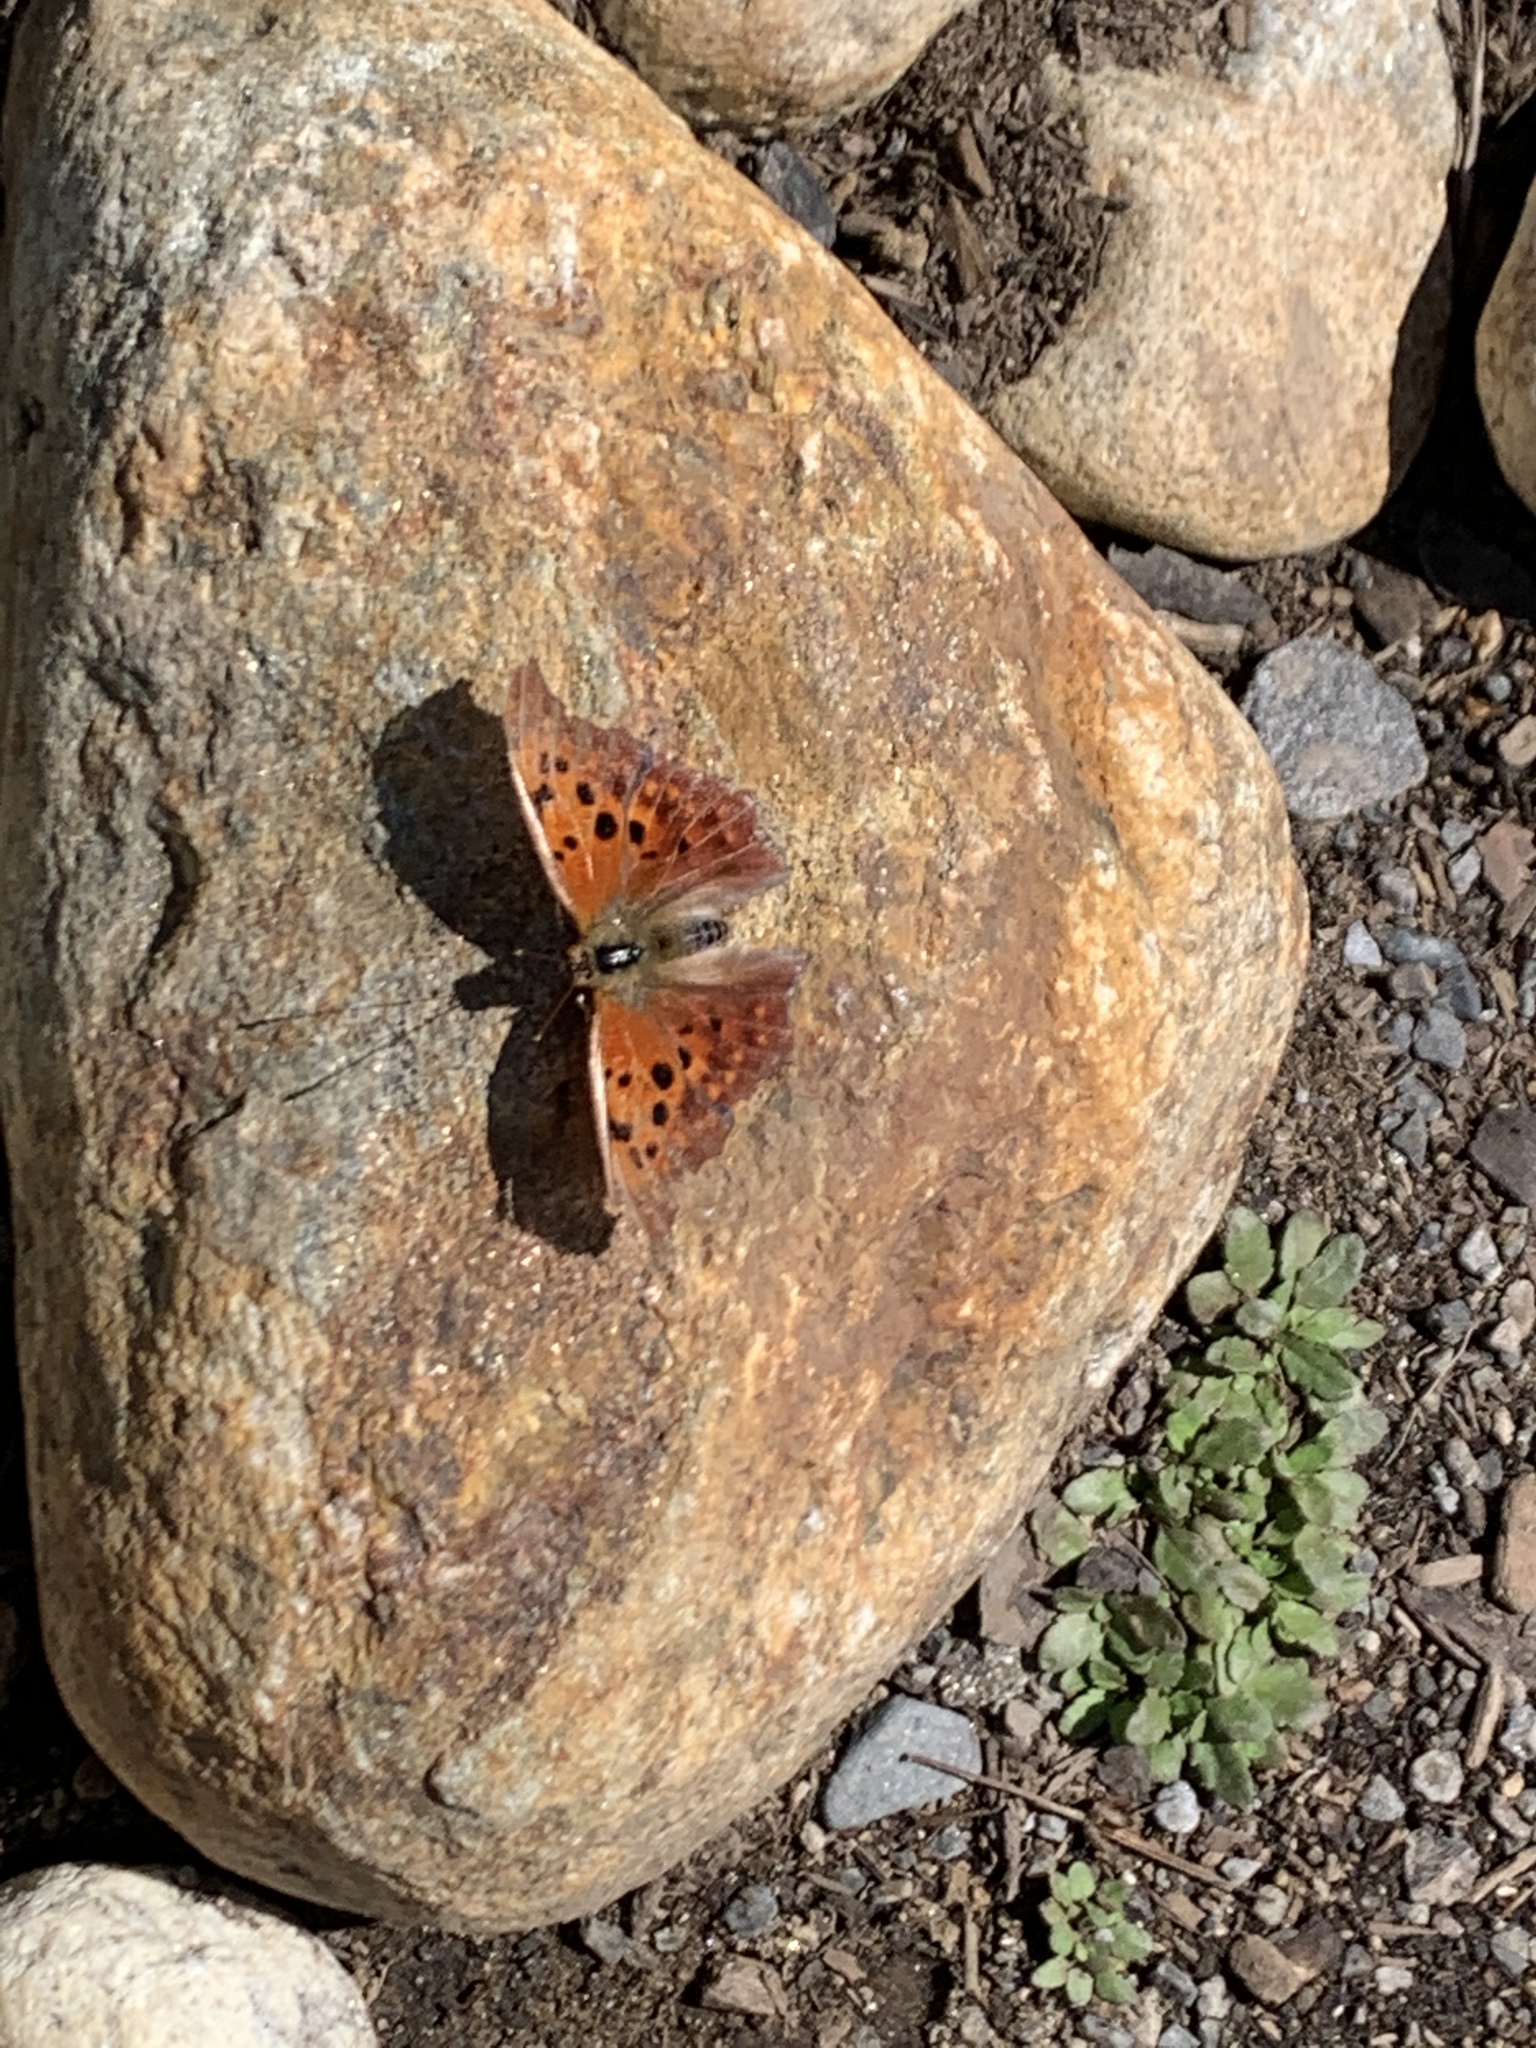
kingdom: Animalia
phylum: Arthropoda
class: Insecta
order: Lepidoptera
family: Nymphalidae
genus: Polygonia
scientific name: Polygonia interrogationis
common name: Question mark
